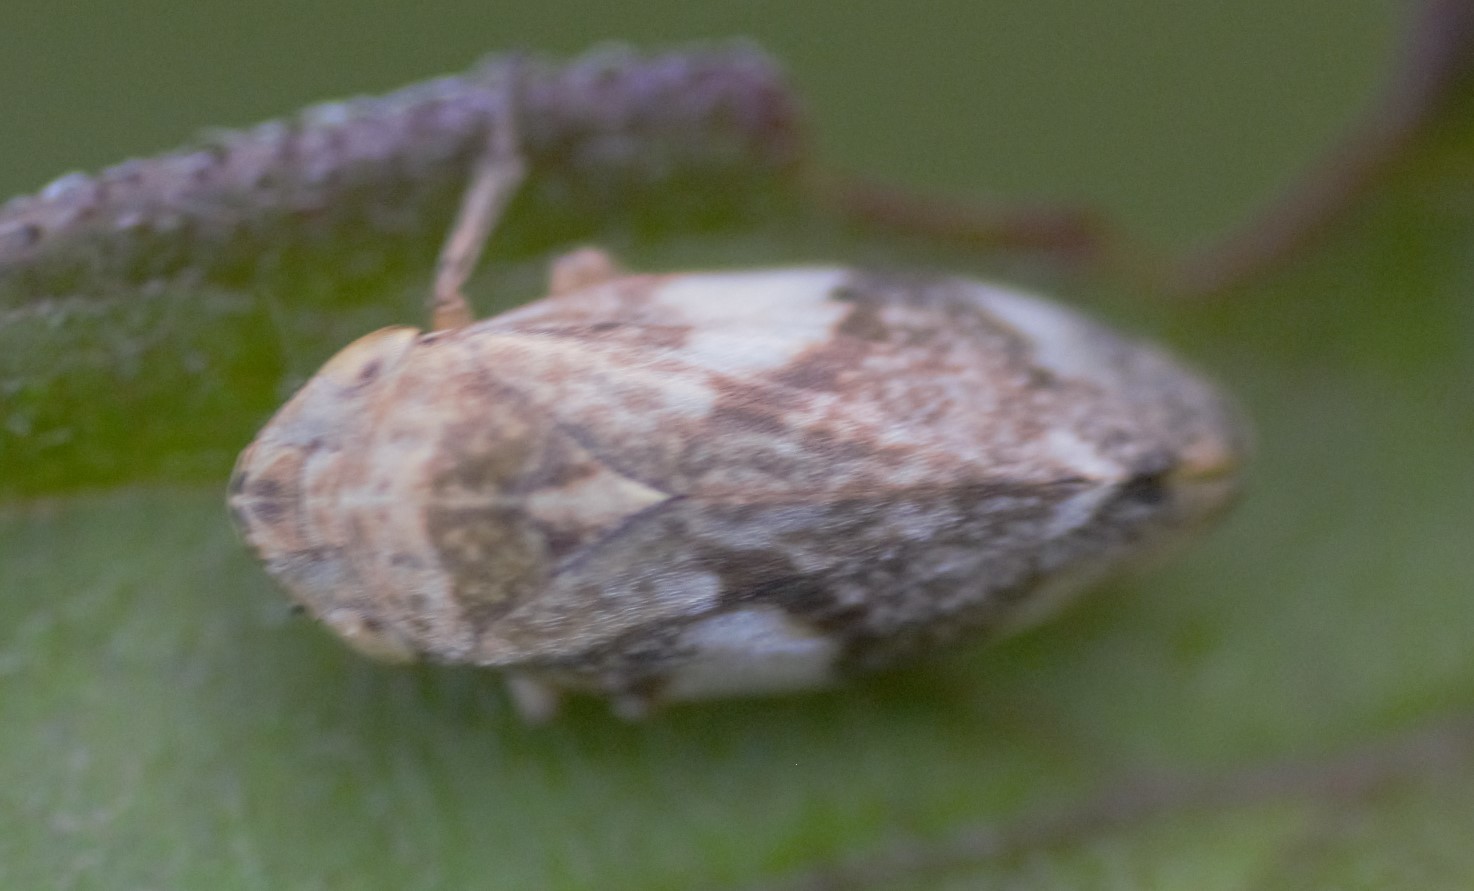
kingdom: Animalia
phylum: Arthropoda
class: Insecta
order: Hemiptera
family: Aphrophoridae
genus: Philaenus
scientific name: Philaenus spumarius
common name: Meadow spittlebug
